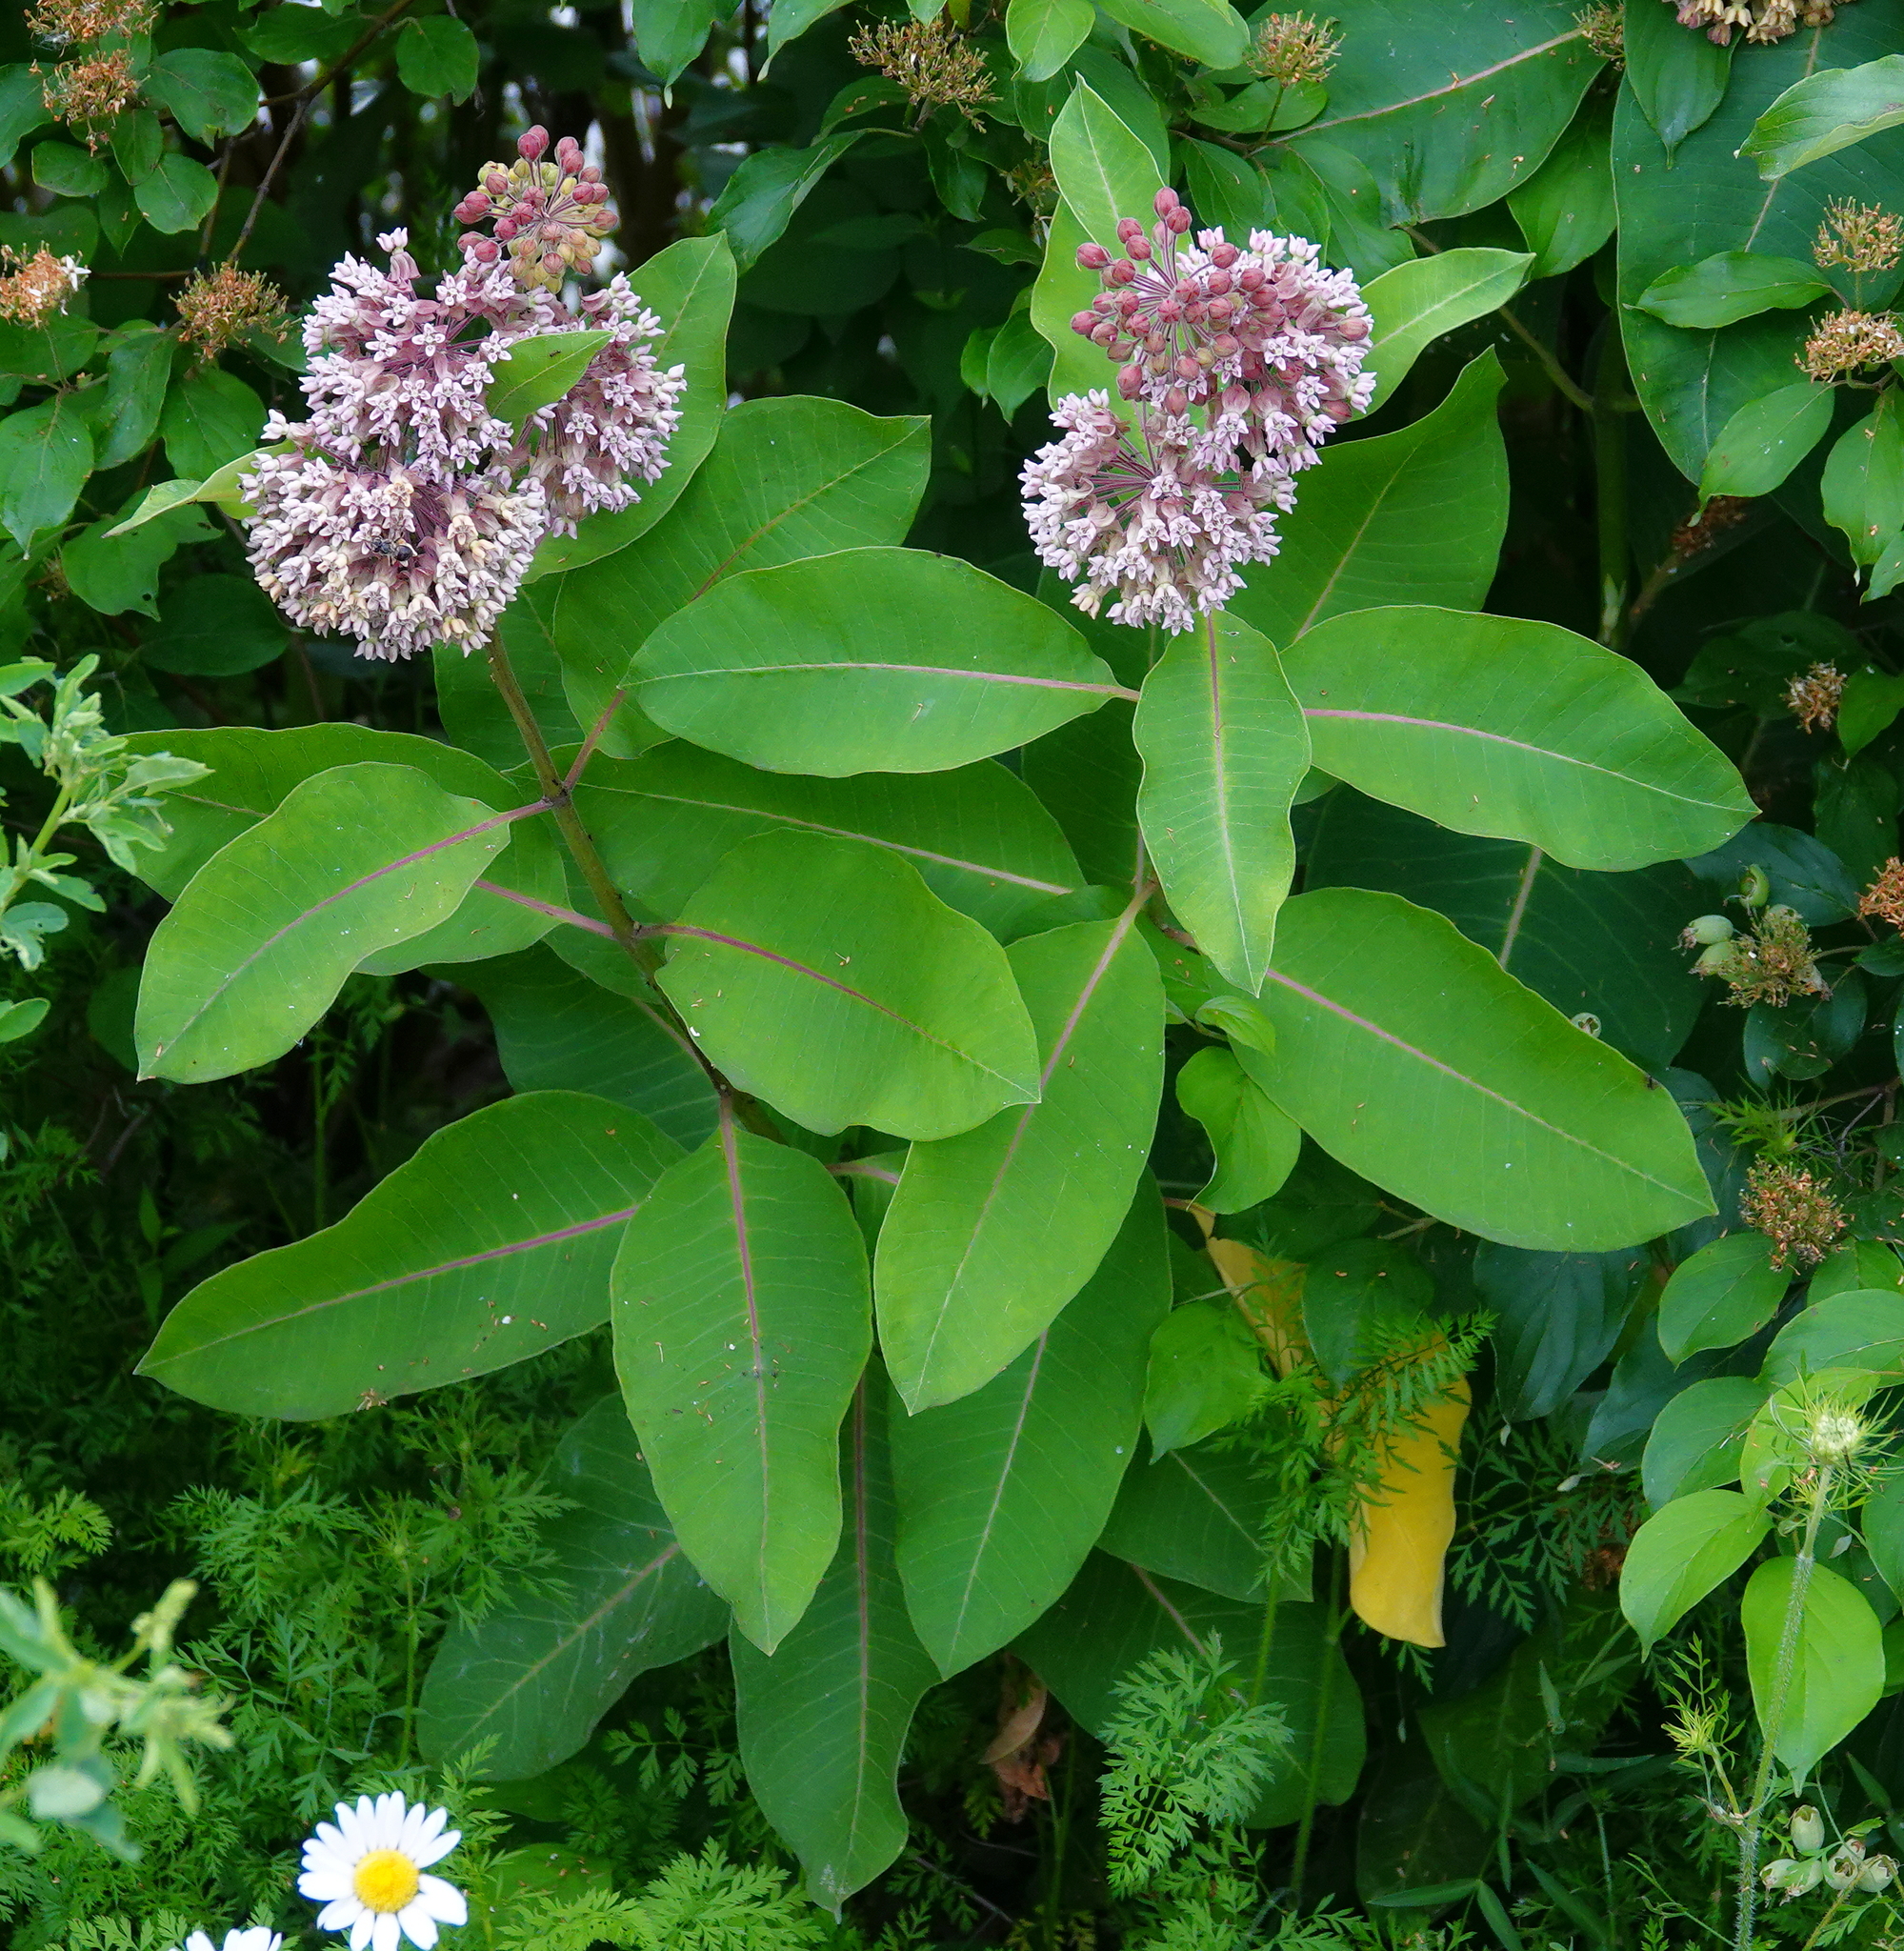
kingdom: Plantae
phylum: Tracheophyta
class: Magnoliopsida
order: Gentianales
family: Apocynaceae
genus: Asclepias
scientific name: Asclepias syriaca
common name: Common milkweed
